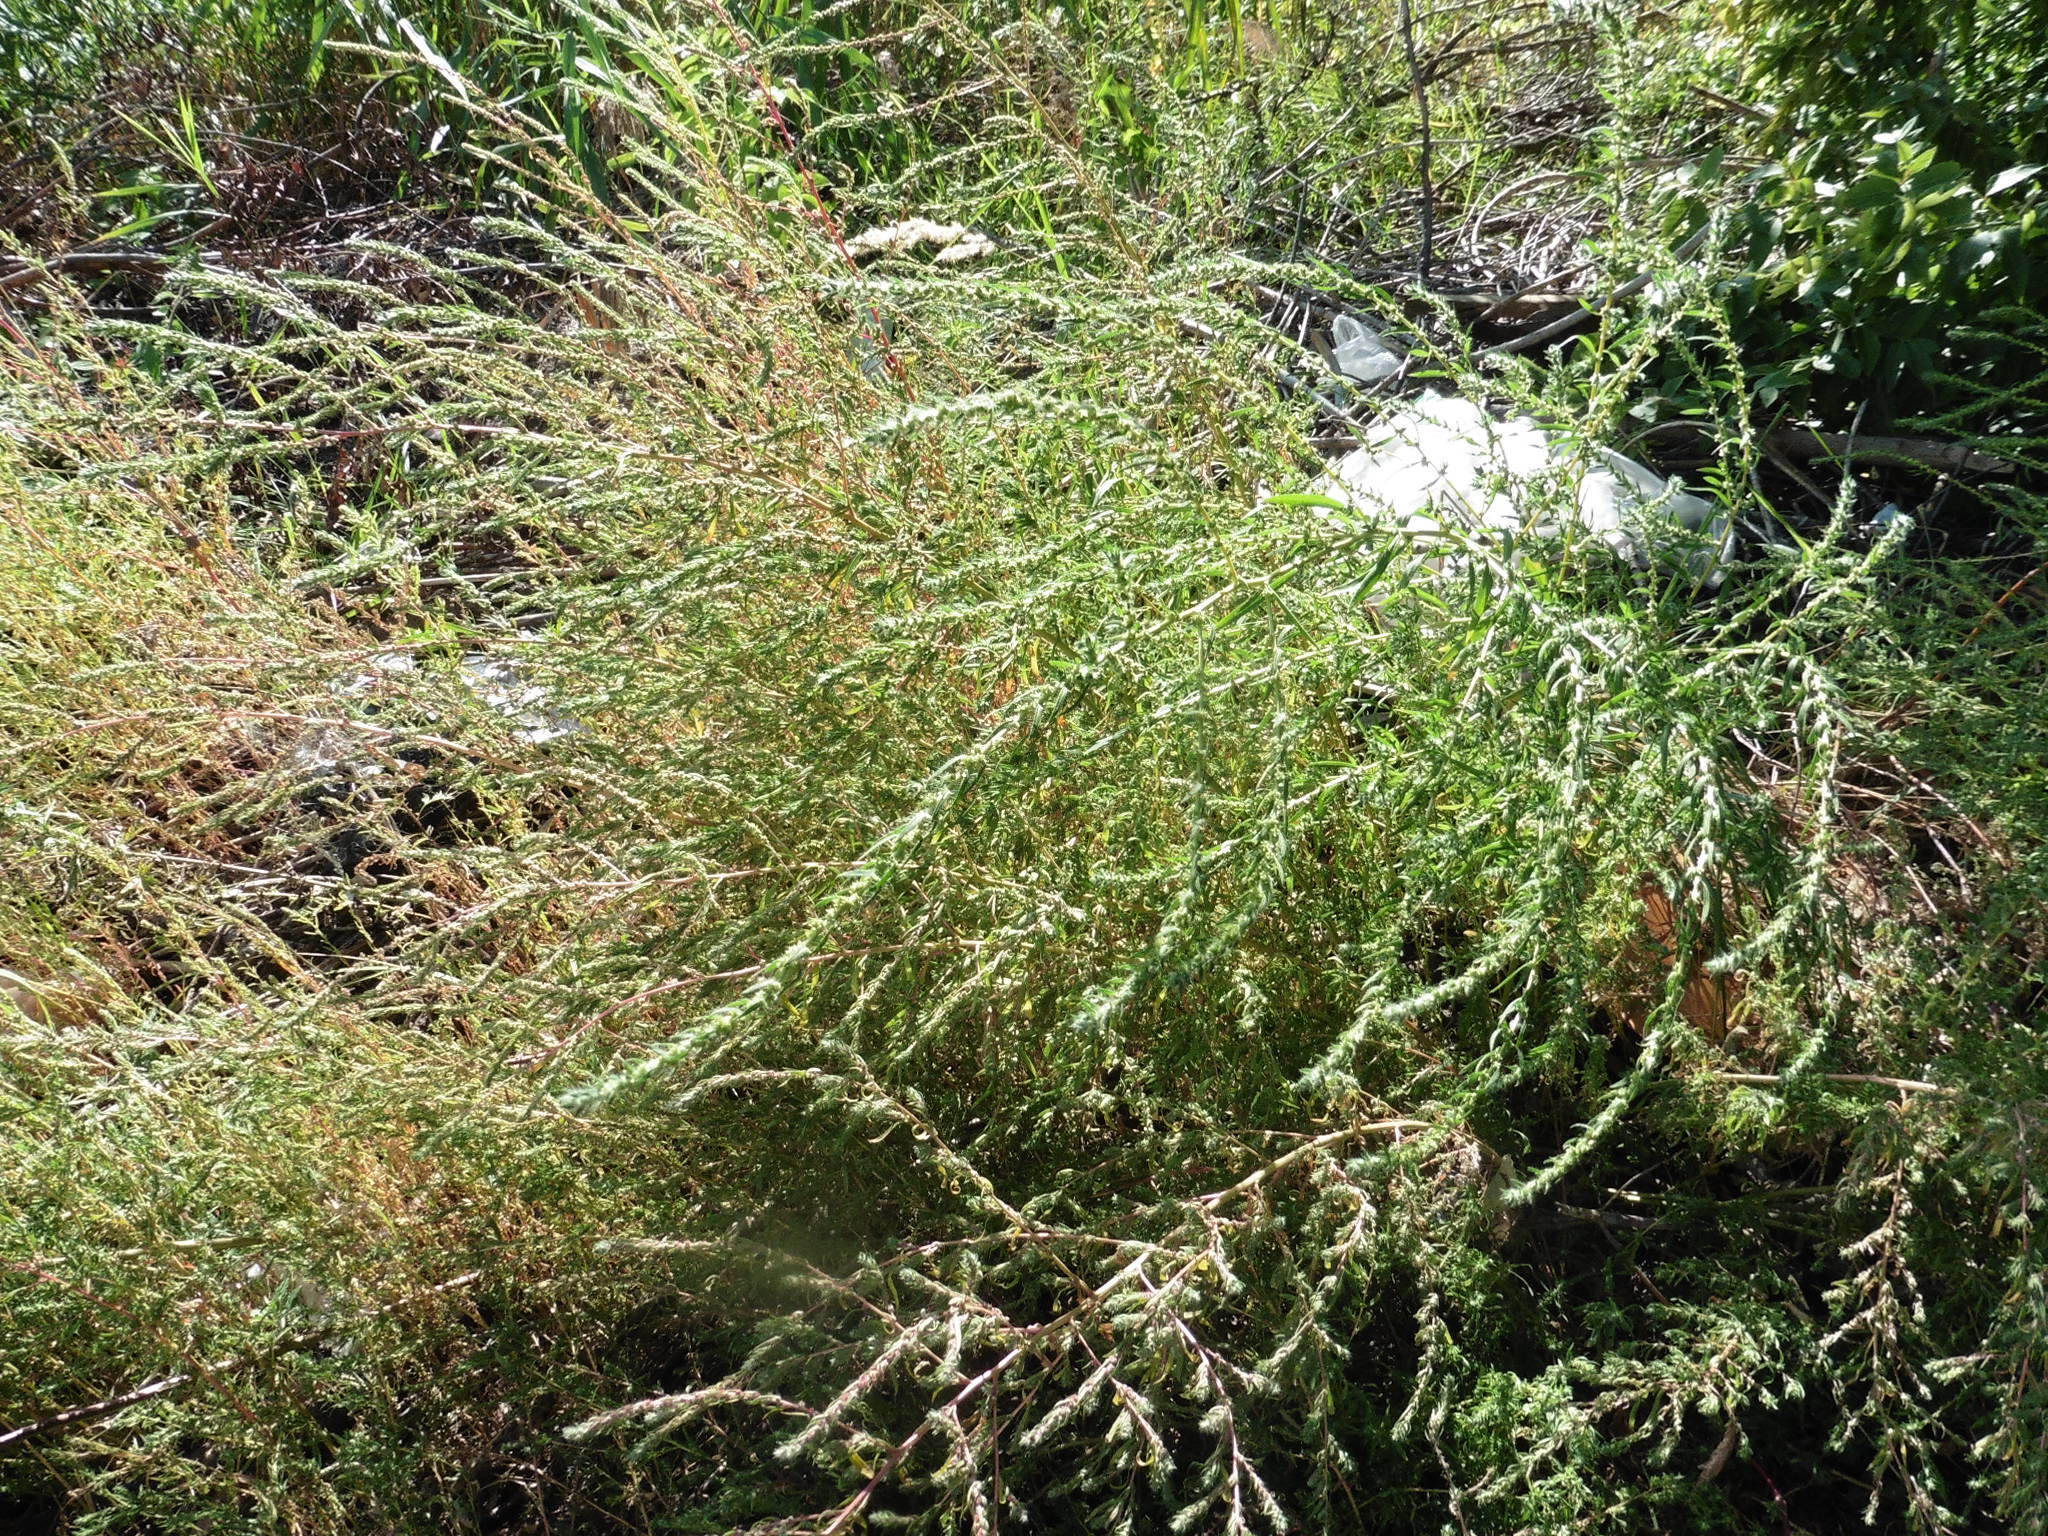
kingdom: Plantae
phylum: Tracheophyta
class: Magnoliopsida
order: Caryophyllales
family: Amaranthaceae
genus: Bassia
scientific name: Bassia scoparia
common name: Belvedere
